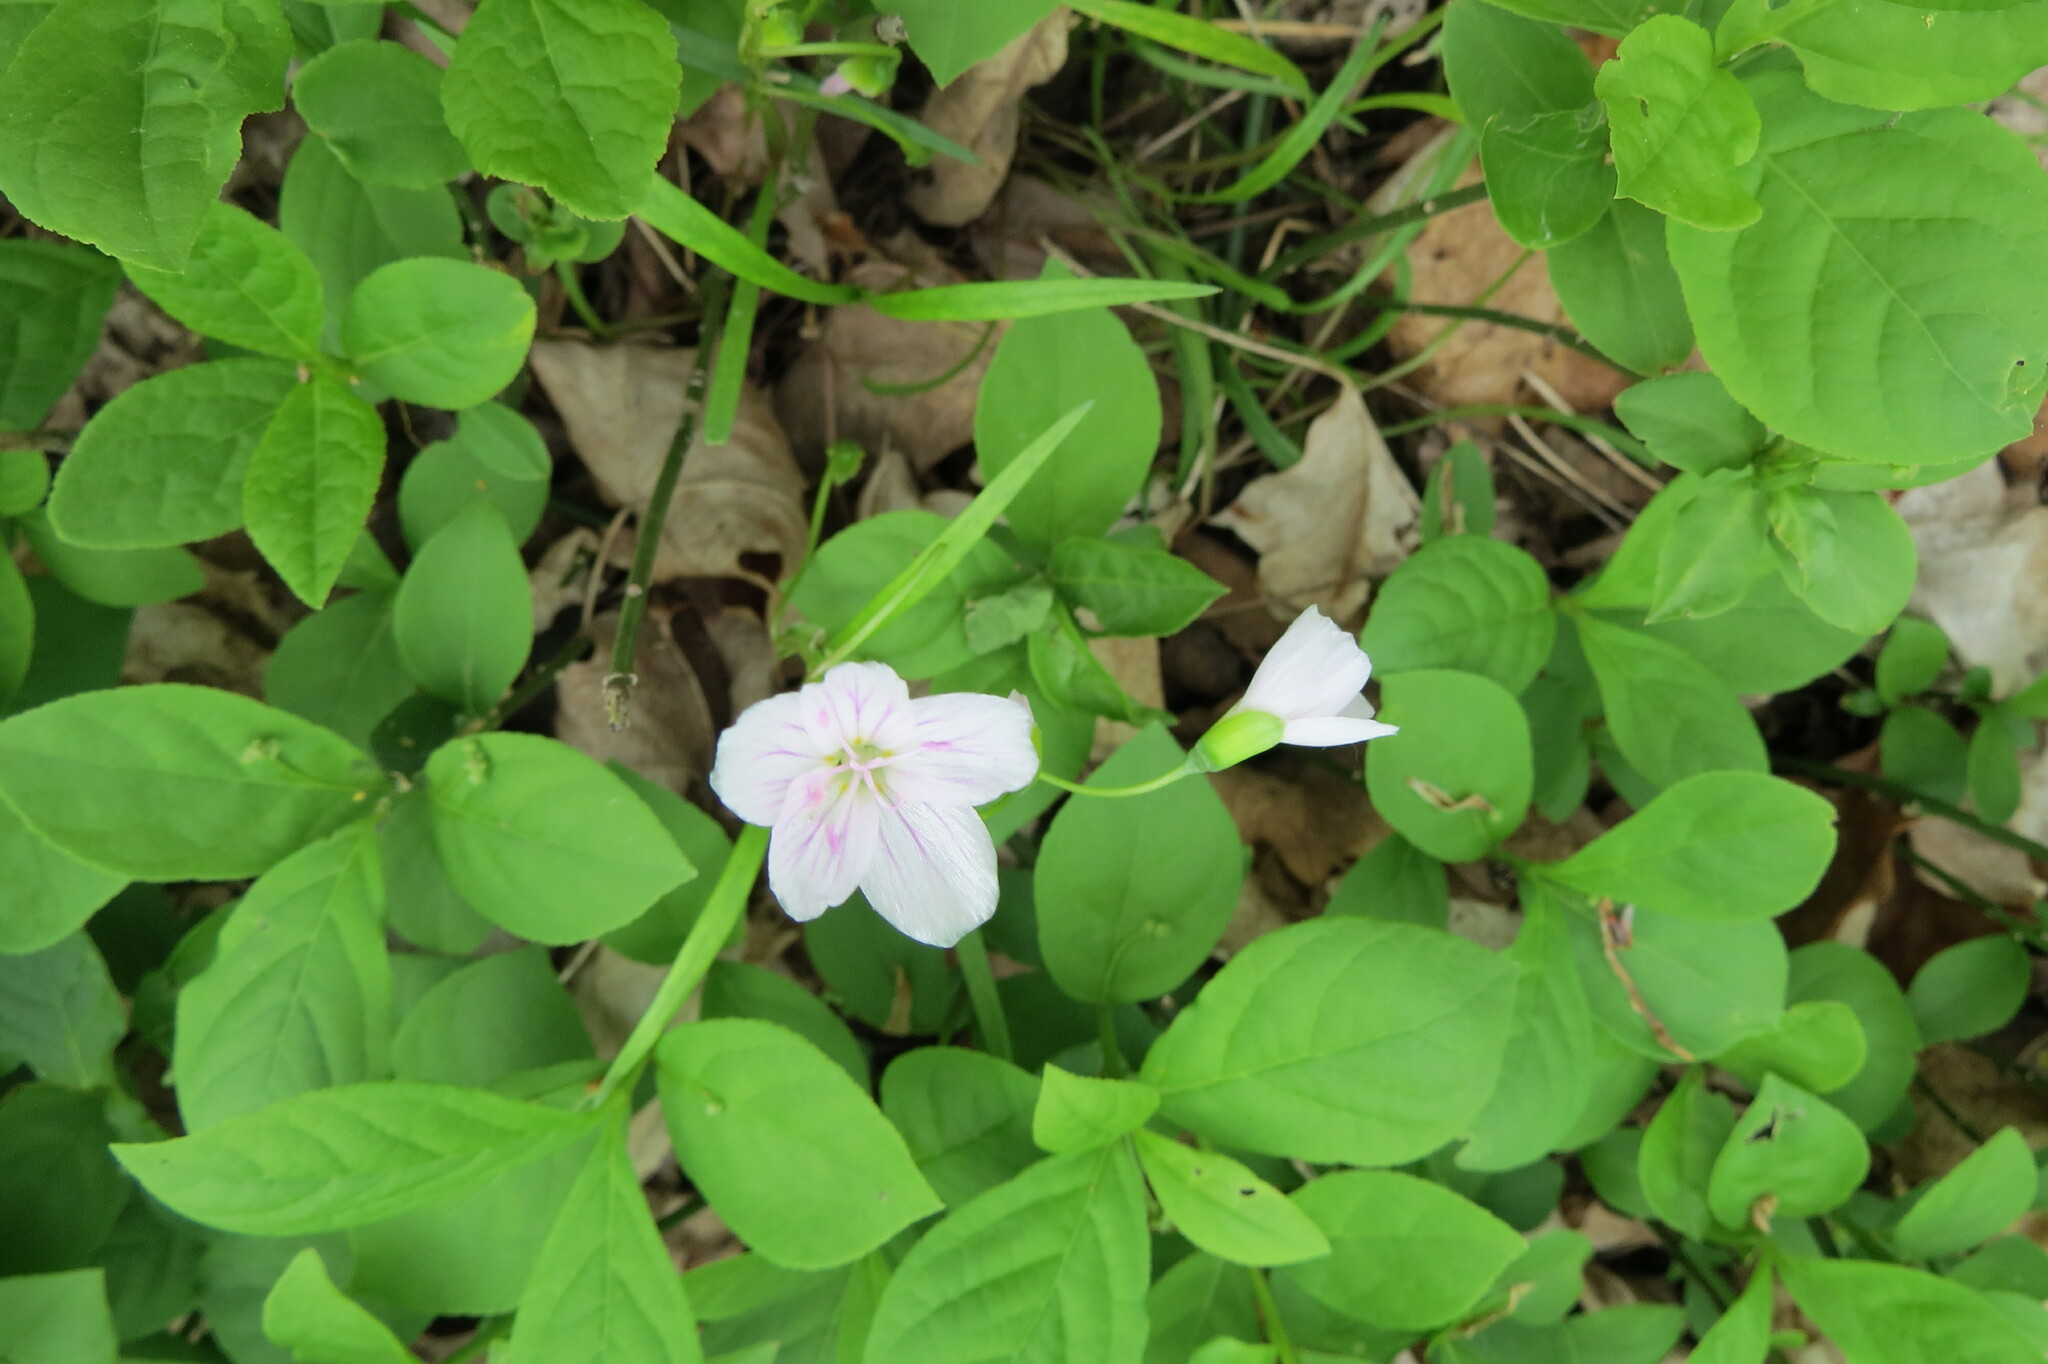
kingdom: Plantae
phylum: Tracheophyta
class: Magnoliopsida
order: Caryophyllales
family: Montiaceae
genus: Claytonia
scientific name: Claytonia virginica
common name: Virginia springbeauty
